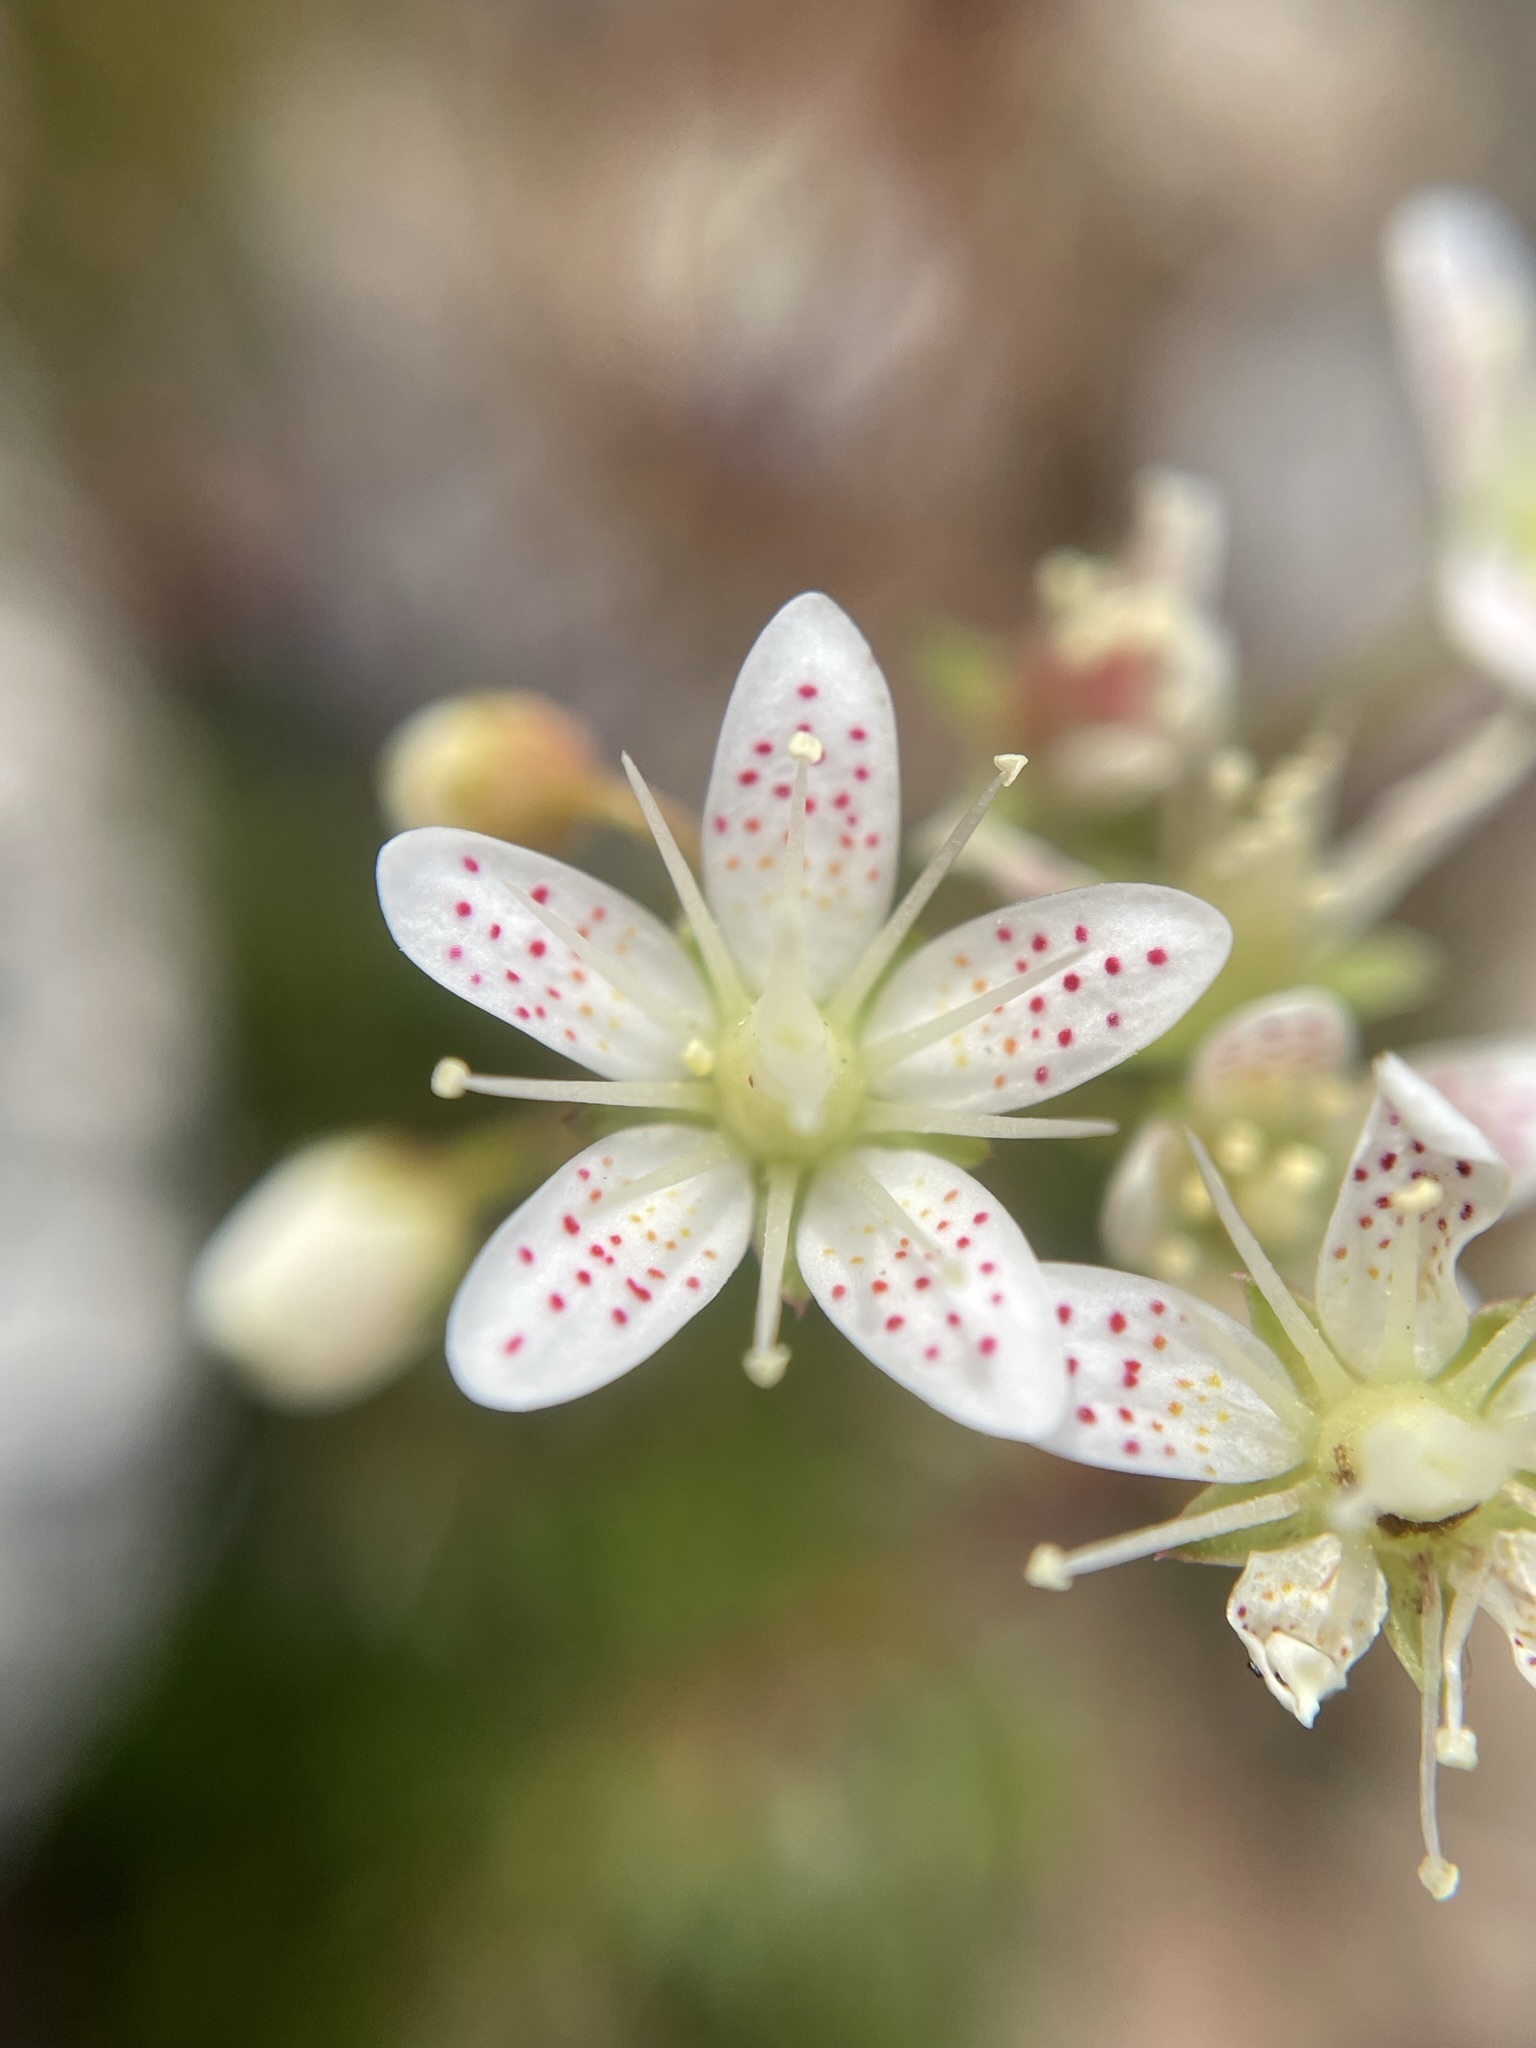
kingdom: Plantae
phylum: Tracheophyta
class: Magnoliopsida
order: Saxifragales
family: Saxifragaceae
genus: Saxifraga
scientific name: Saxifraga bronchialis
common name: Matted saxifrage
